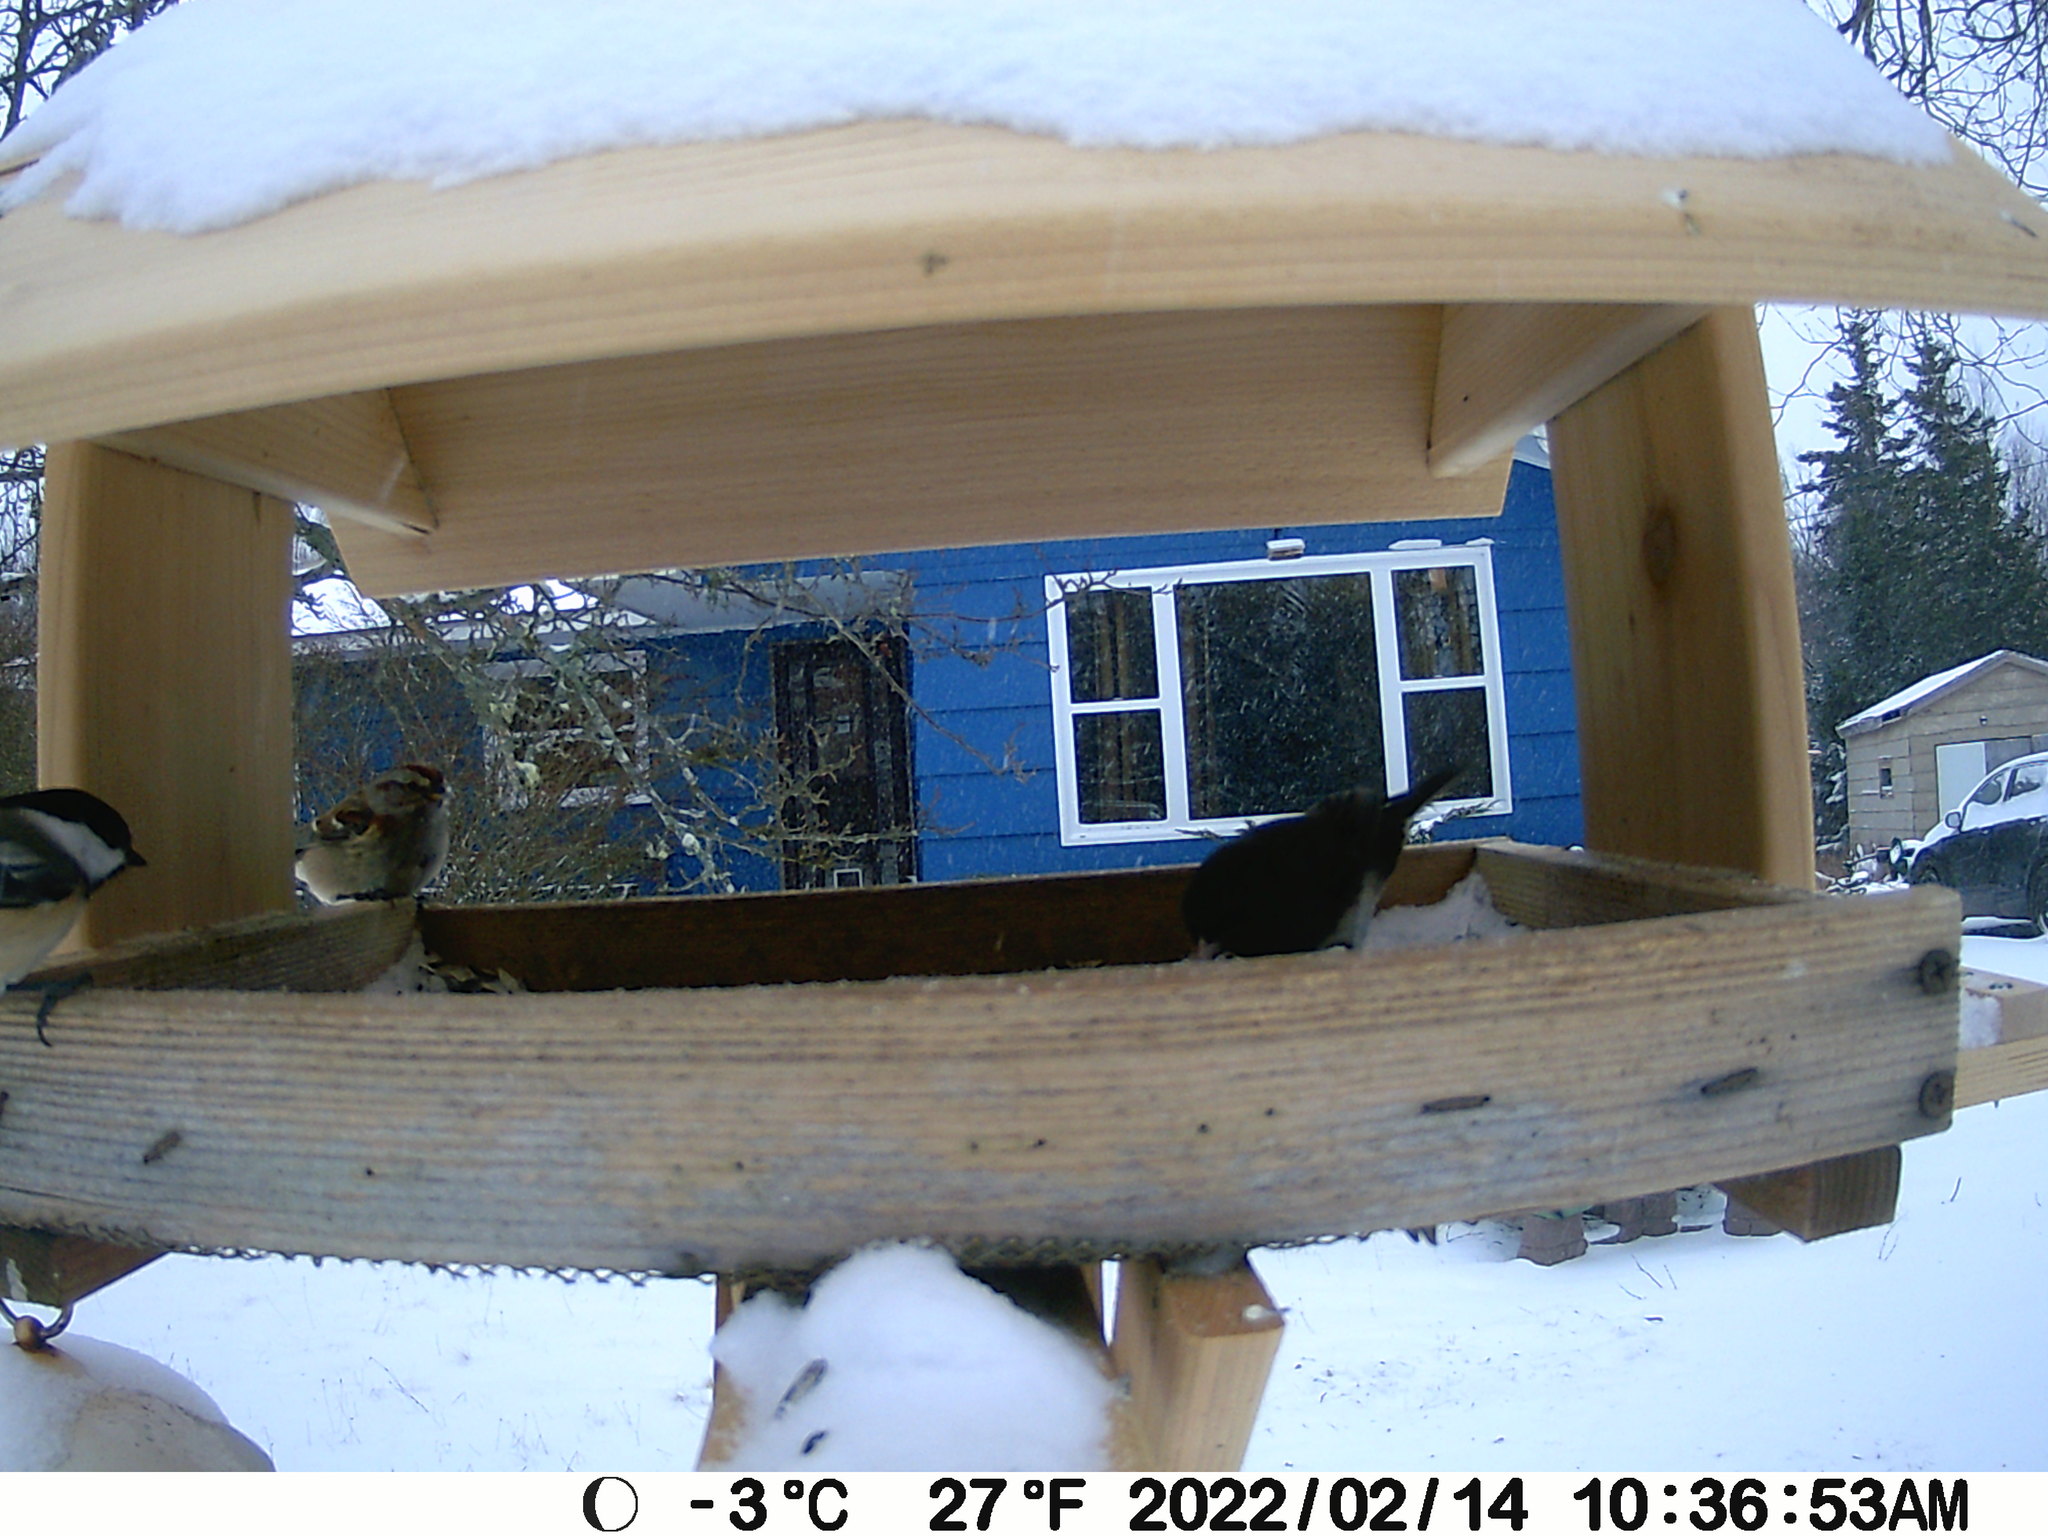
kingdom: Animalia
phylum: Chordata
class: Aves
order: Passeriformes
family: Passerellidae
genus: Spizelloides
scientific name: Spizelloides arborea
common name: American tree sparrow
